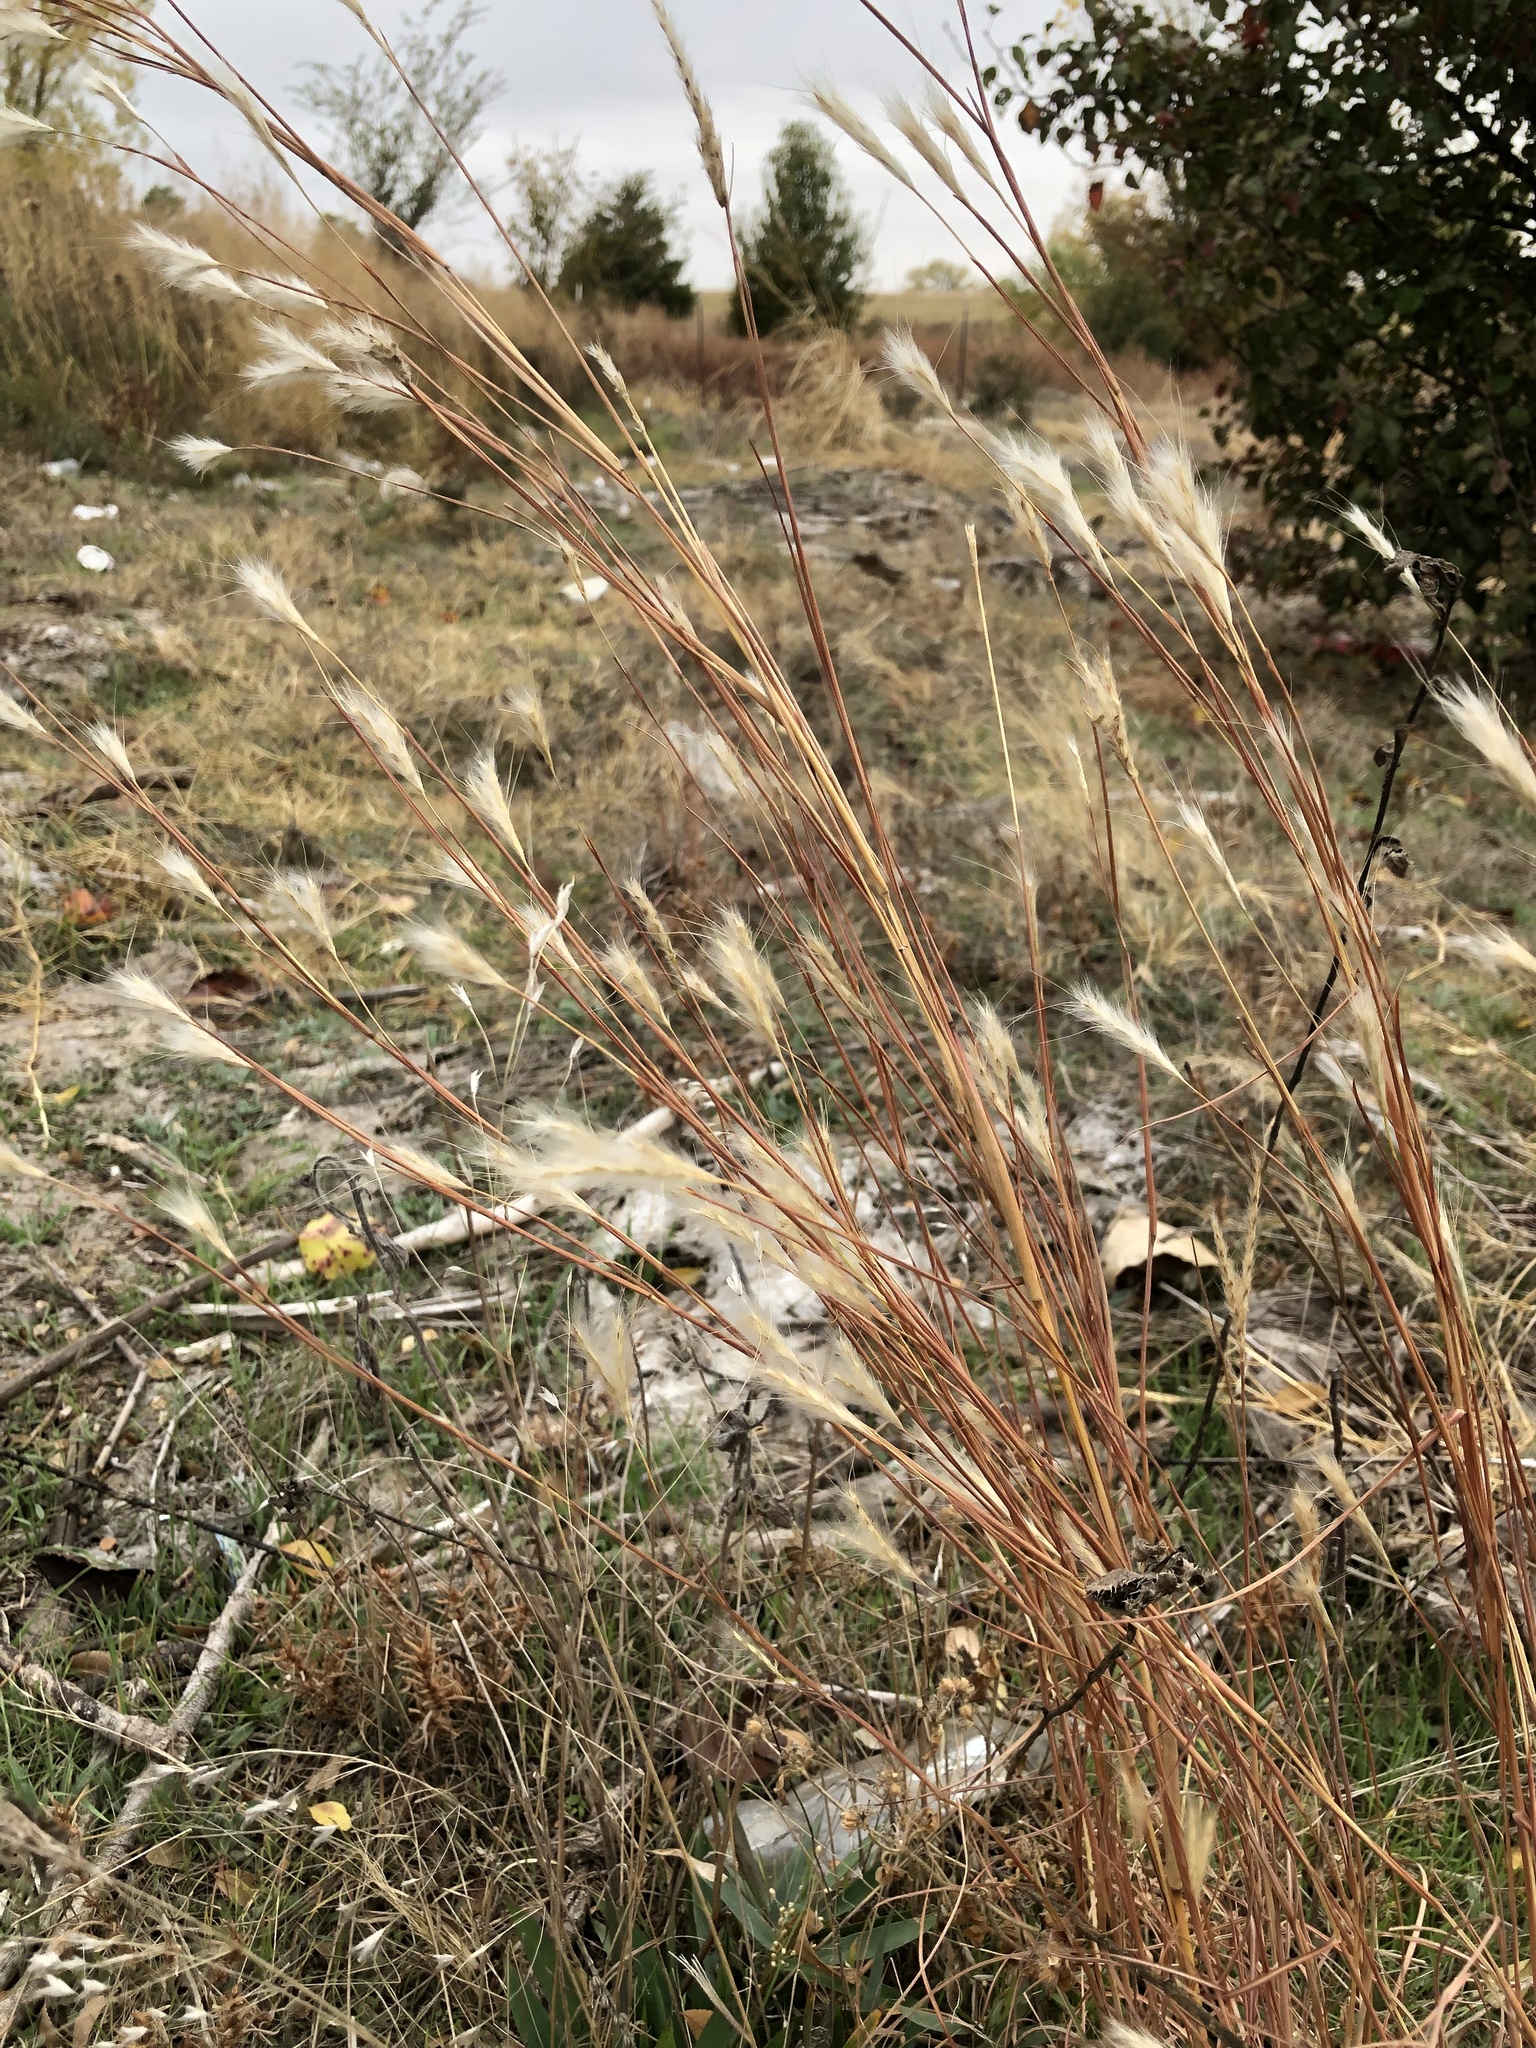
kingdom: Plantae
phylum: Tracheophyta
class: Liliopsida
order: Poales
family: Poaceae
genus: Andropogon
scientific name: Andropogon ternarius
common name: Split bluestem
